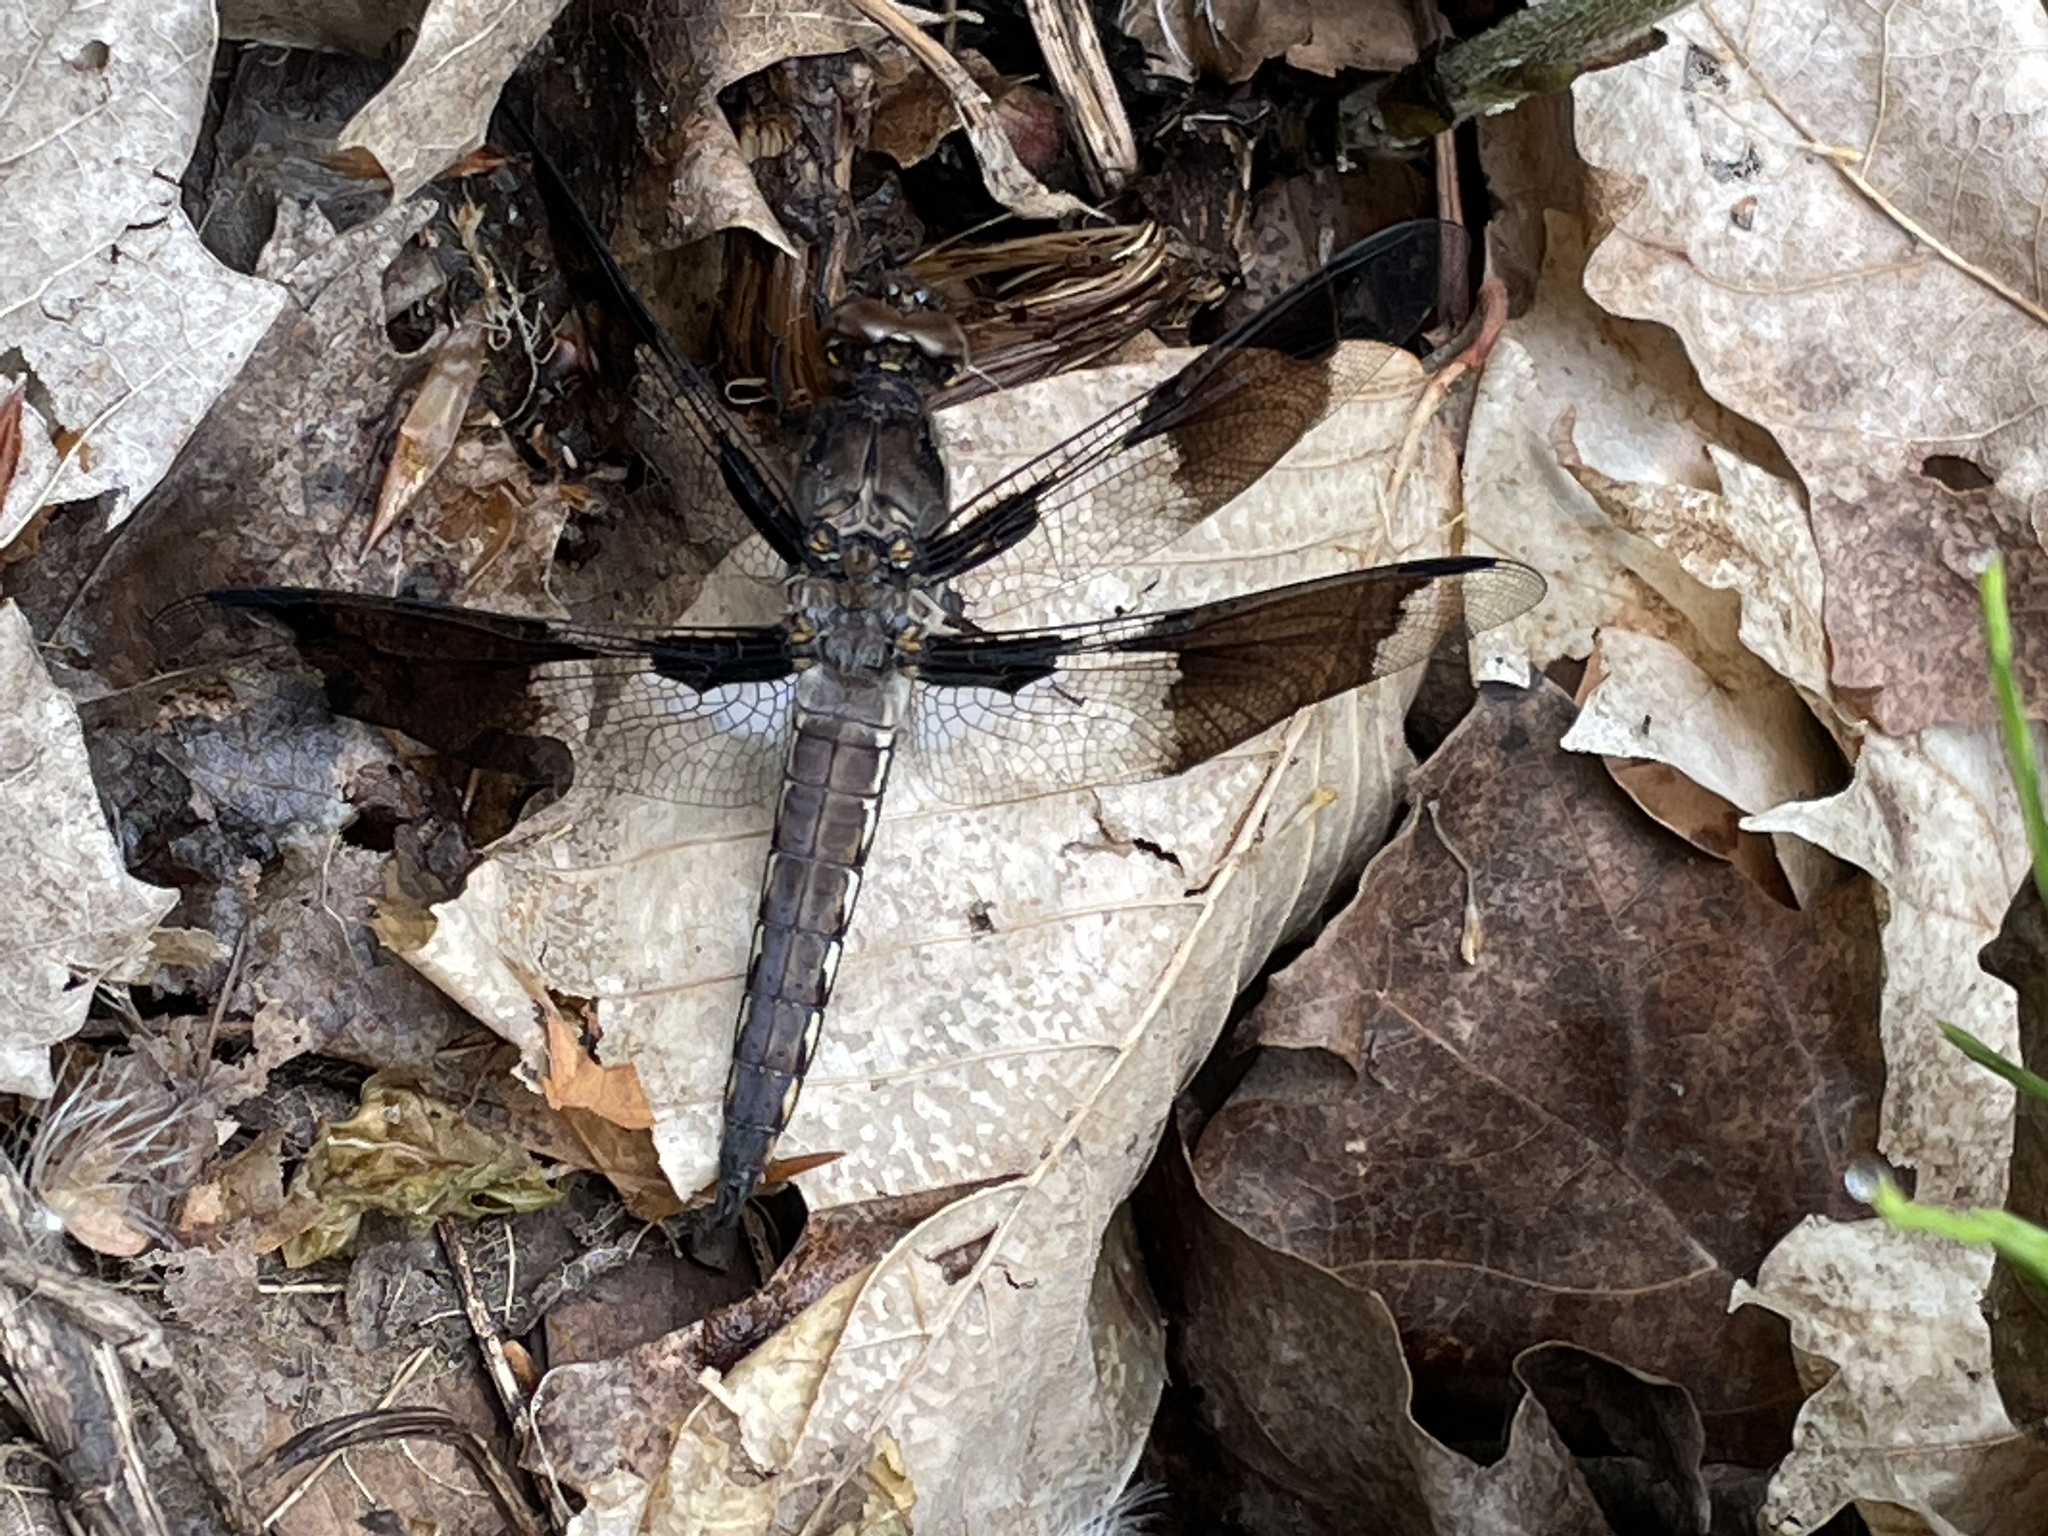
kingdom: Animalia
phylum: Arthropoda
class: Insecta
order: Odonata
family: Libellulidae
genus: Plathemis
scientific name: Plathemis lydia
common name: Common whitetail
